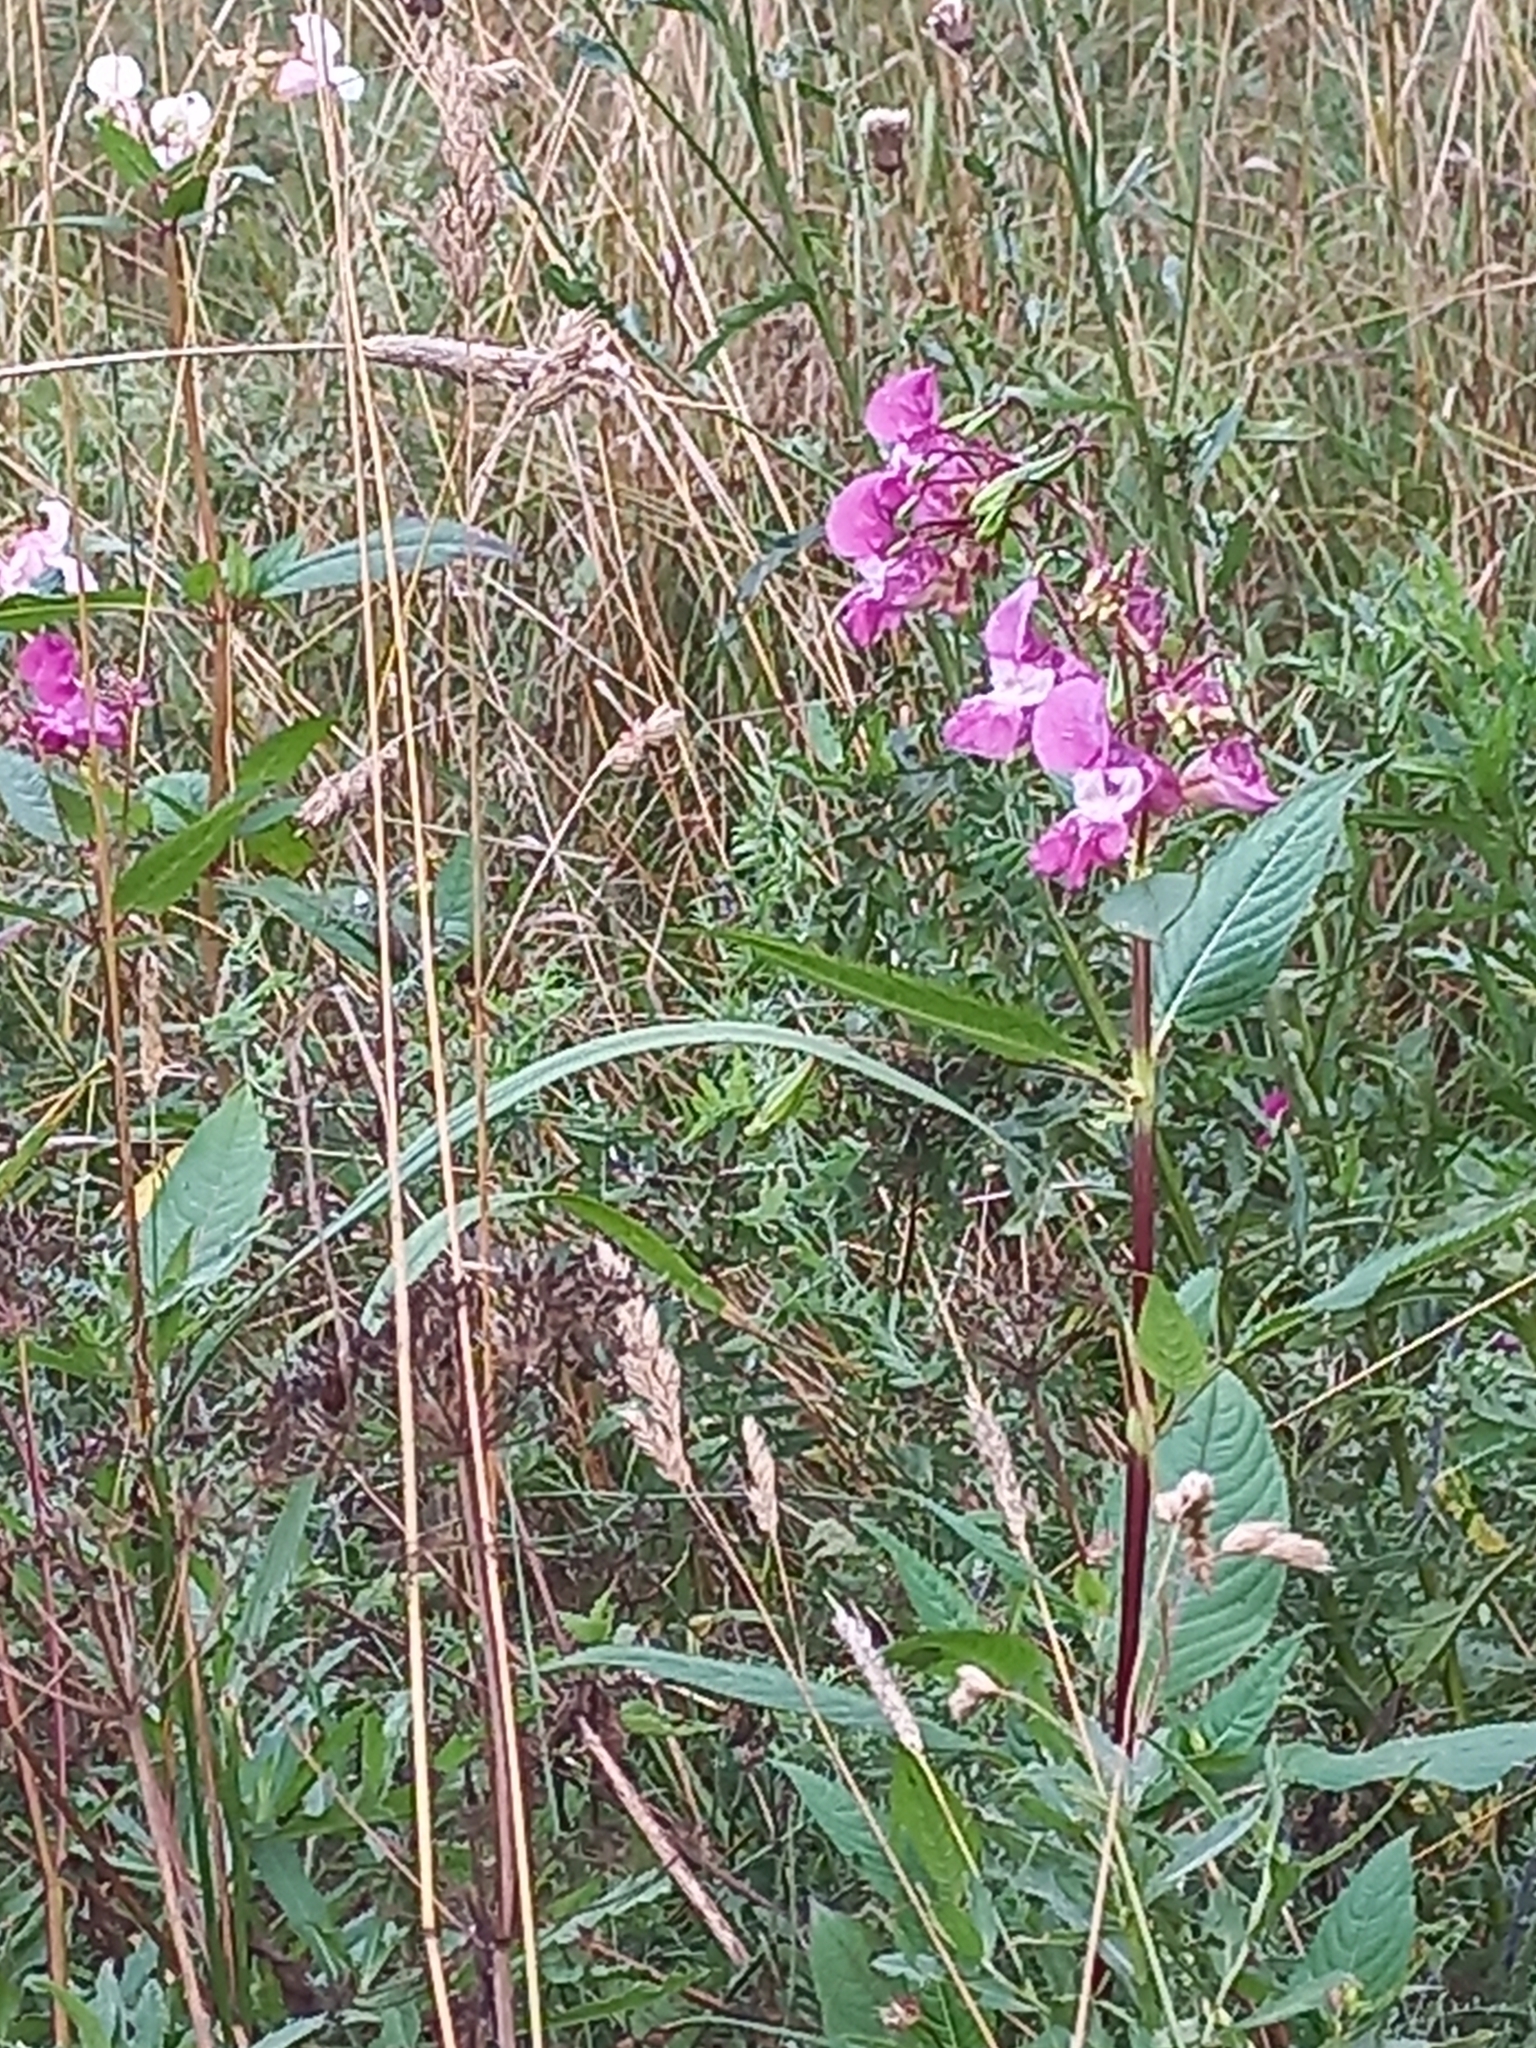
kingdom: Plantae
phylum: Tracheophyta
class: Magnoliopsida
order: Ericales
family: Balsaminaceae
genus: Impatiens
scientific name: Impatiens glandulifera
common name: Himalayan balsam
